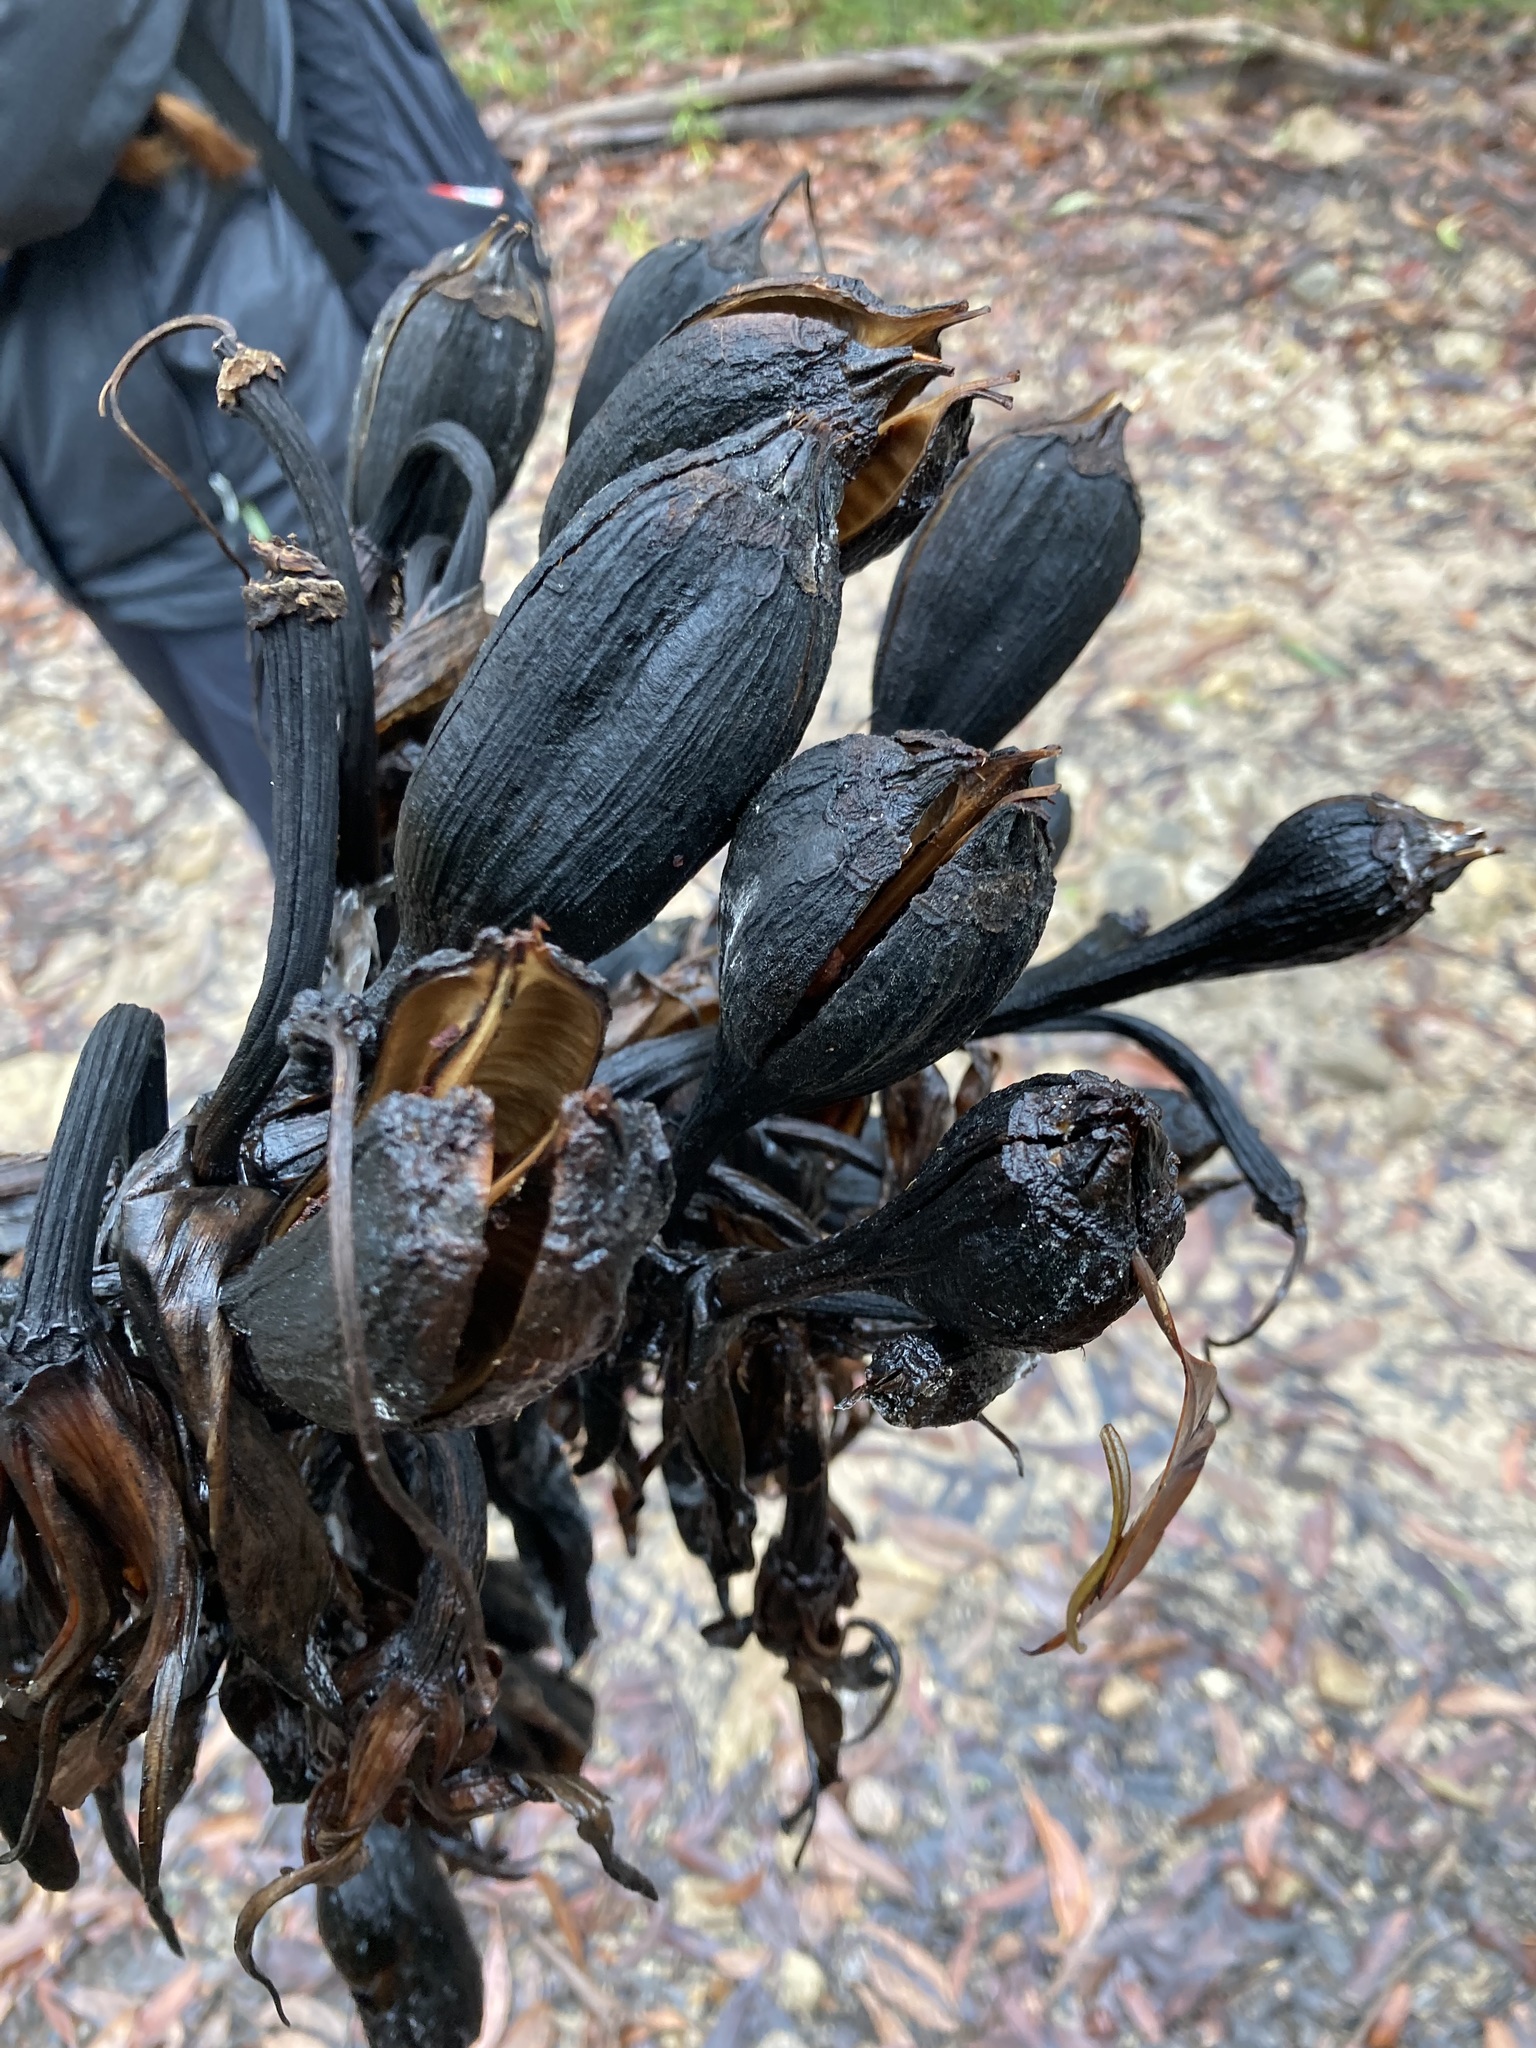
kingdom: Plantae
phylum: Tracheophyta
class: Liliopsida
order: Asparagales
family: Doryanthaceae
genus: Doryanthes
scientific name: Doryanthes excelsa
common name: Giant-lily
